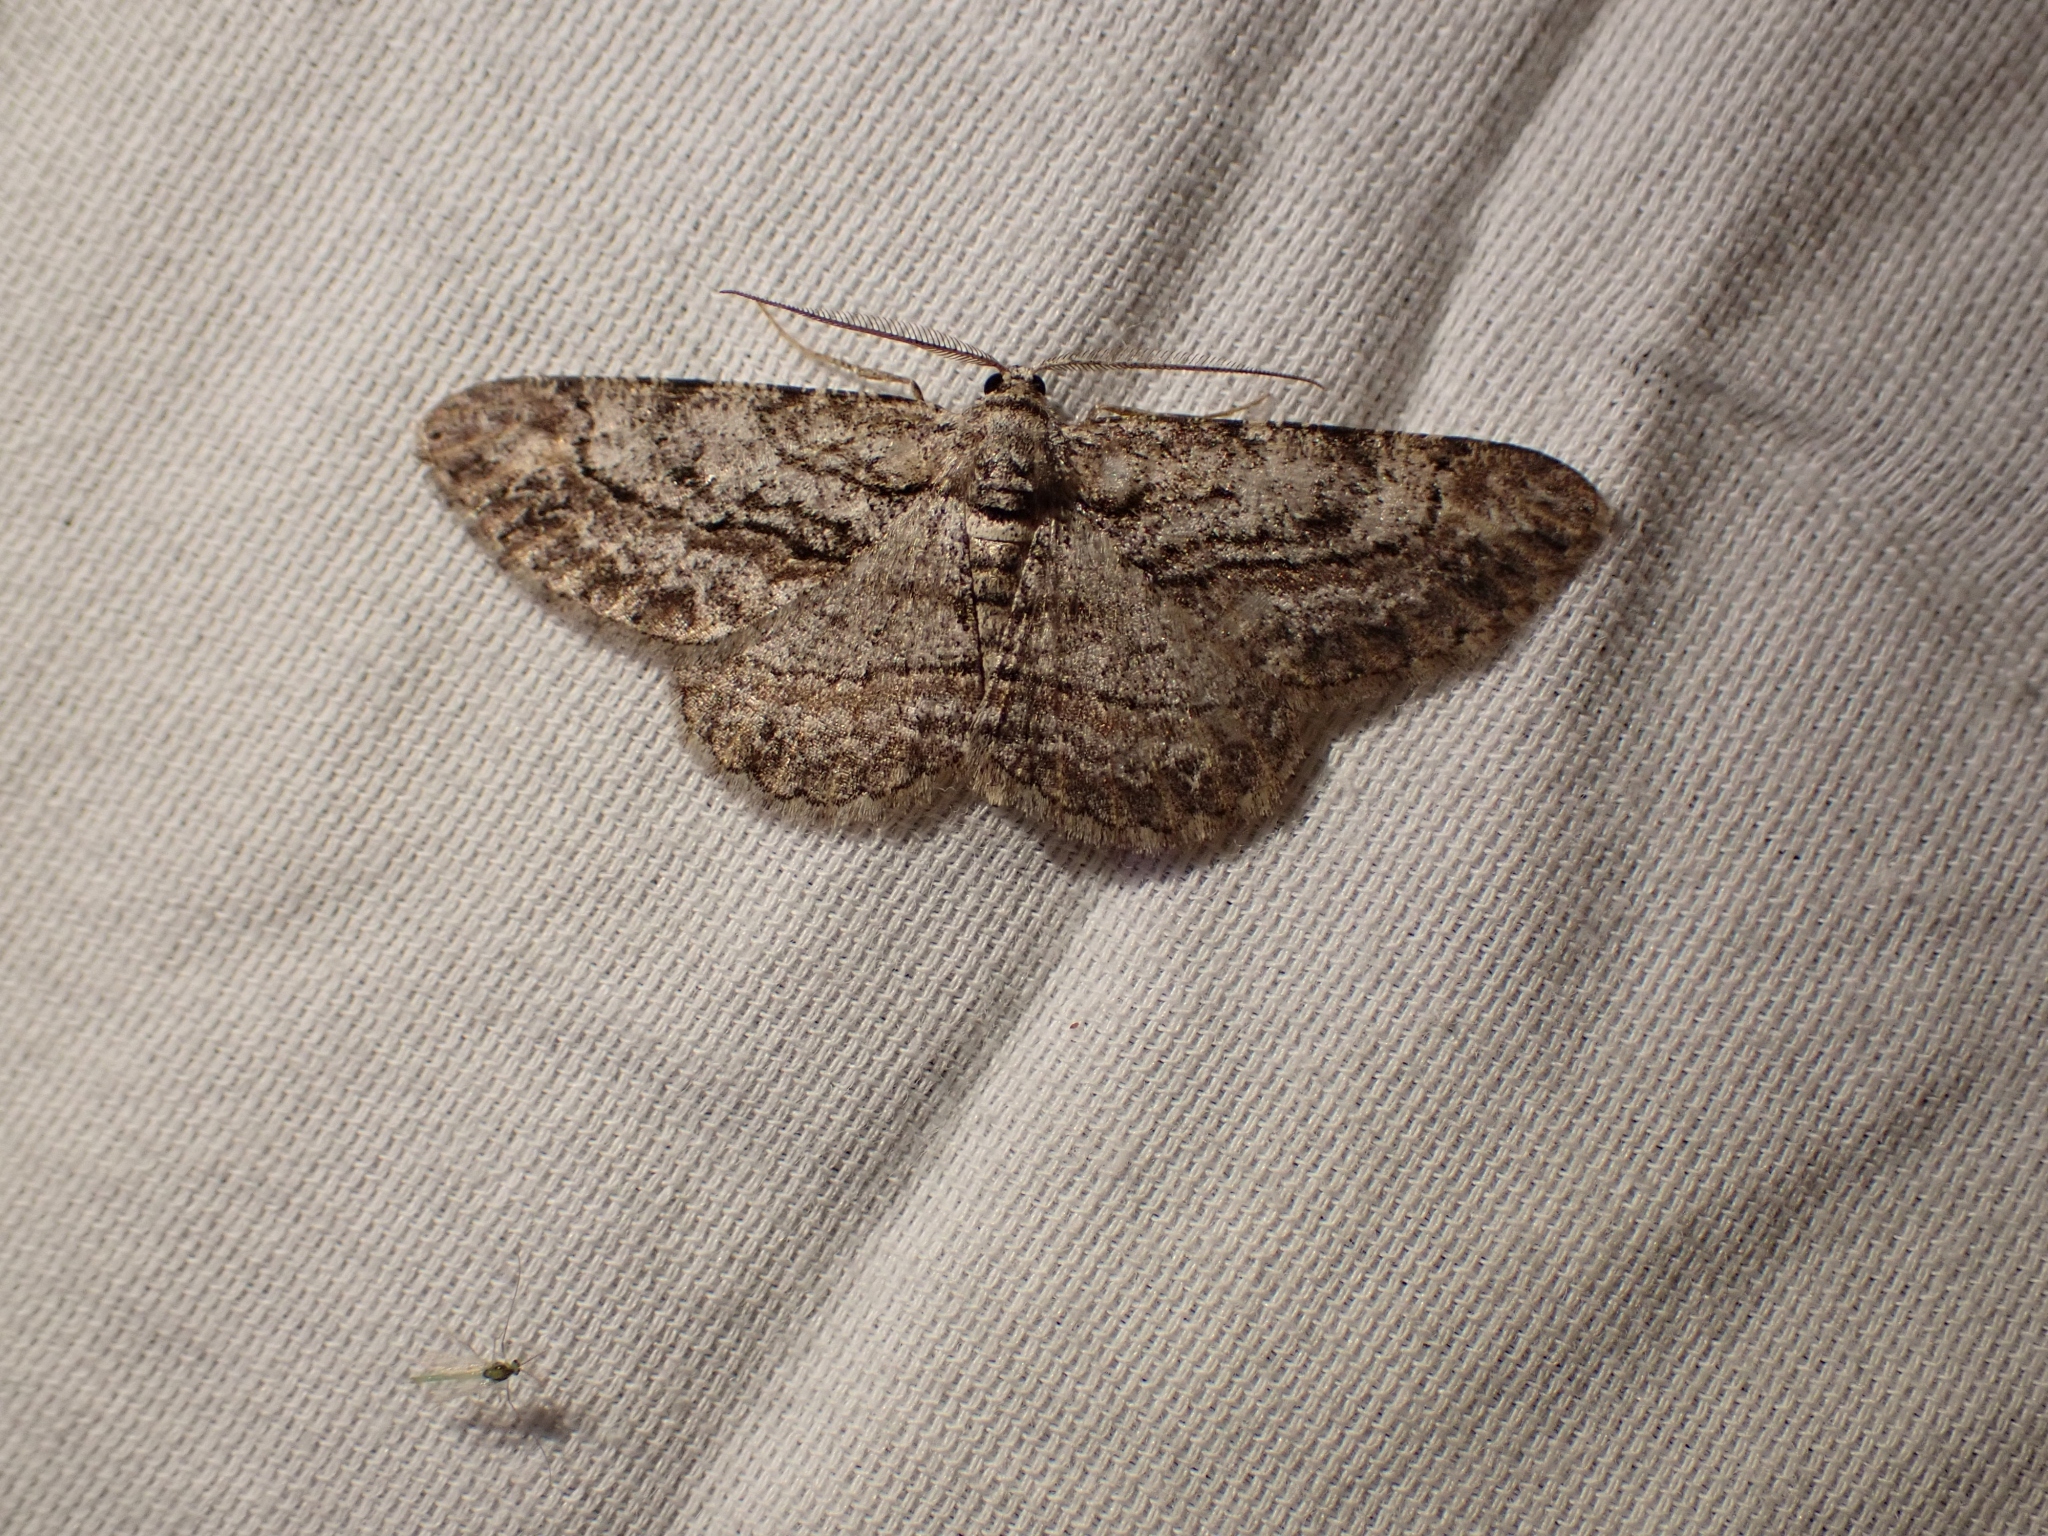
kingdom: Animalia
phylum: Arthropoda
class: Insecta
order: Lepidoptera
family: Geometridae
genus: Anavitrinella
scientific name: Anavitrinella pampinaria
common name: Common gray
